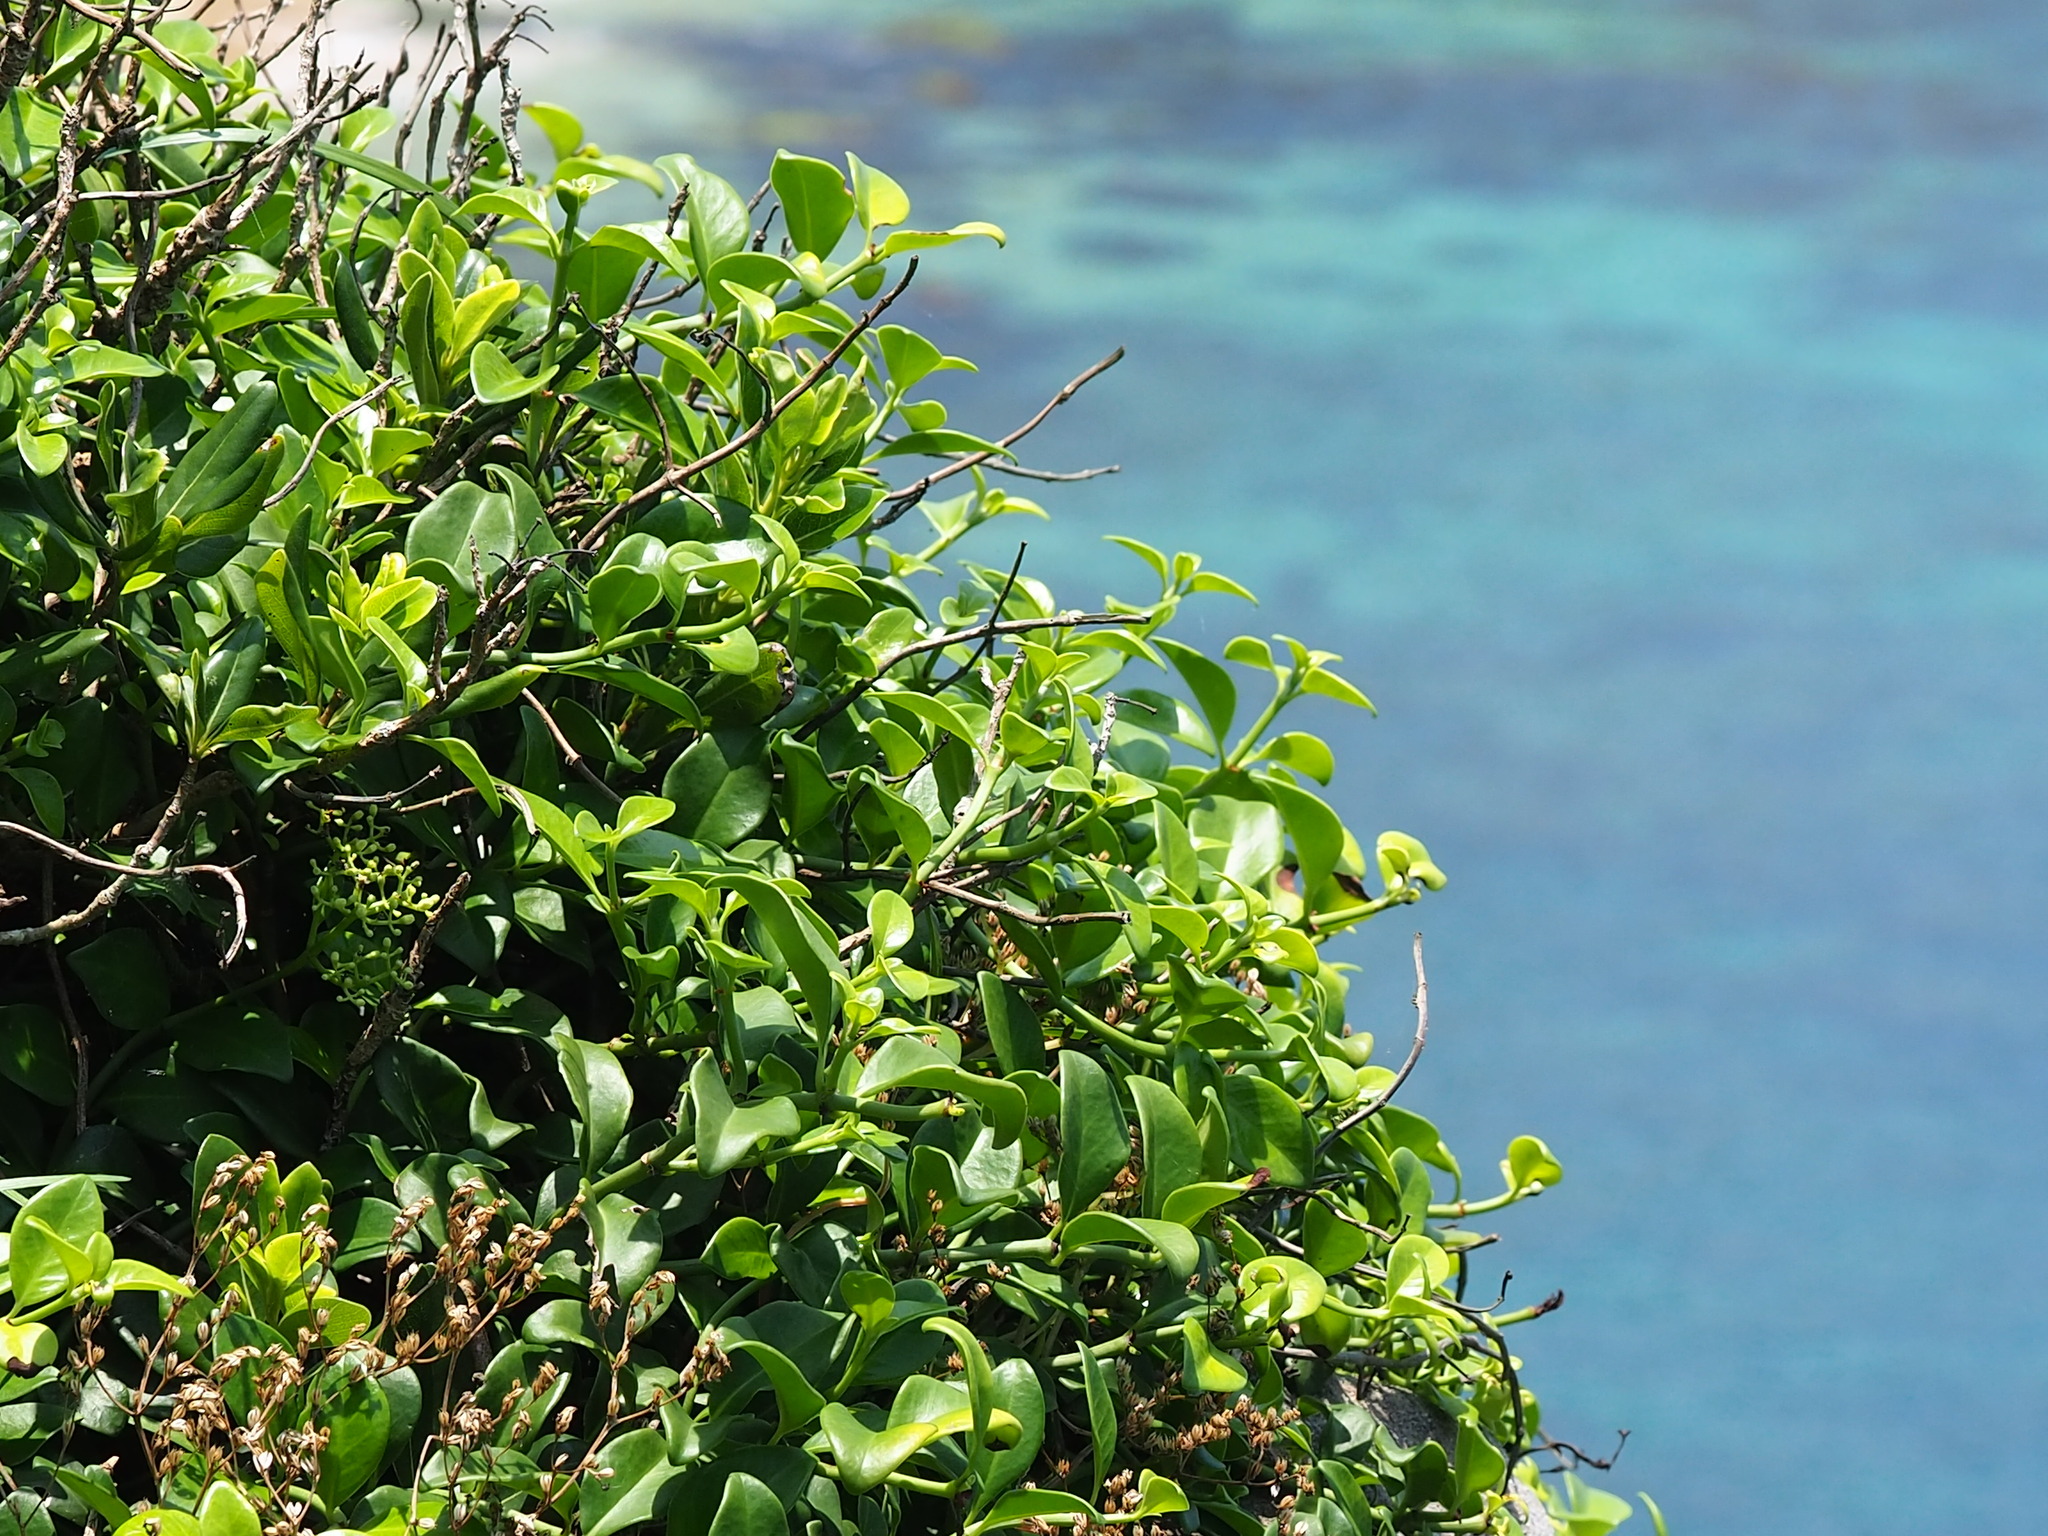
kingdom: Plantae
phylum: Tracheophyta
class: Magnoliopsida
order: Gentianales
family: Rubiaceae
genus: Psychotria
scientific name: Psychotria serpens
